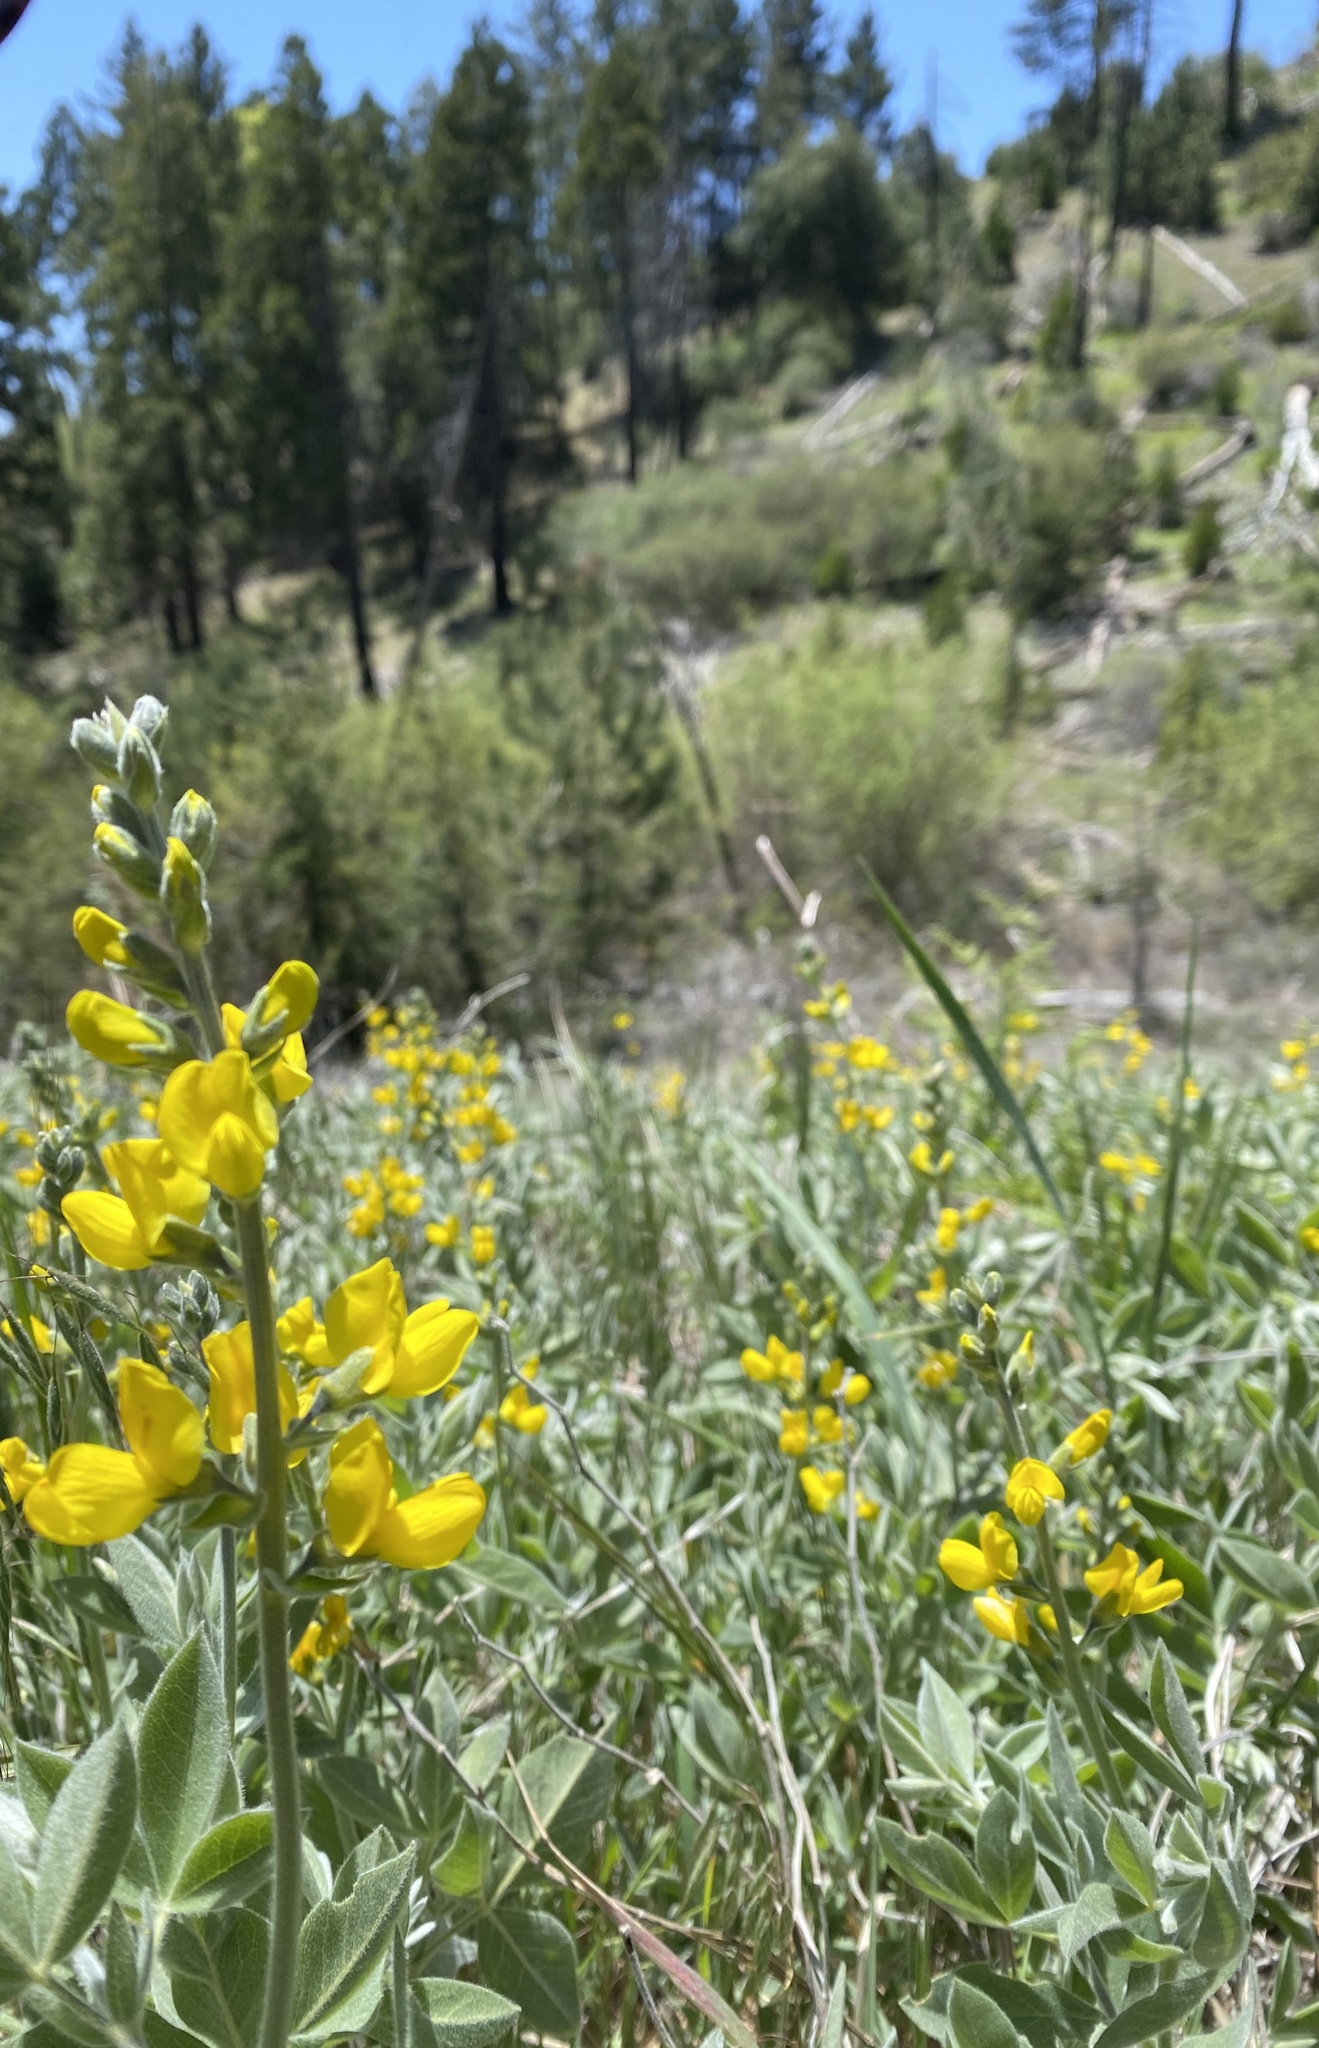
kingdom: Plantae
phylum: Tracheophyta
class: Magnoliopsida
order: Fabales
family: Fabaceae
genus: Thermopsis
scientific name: Thermopsis californica
